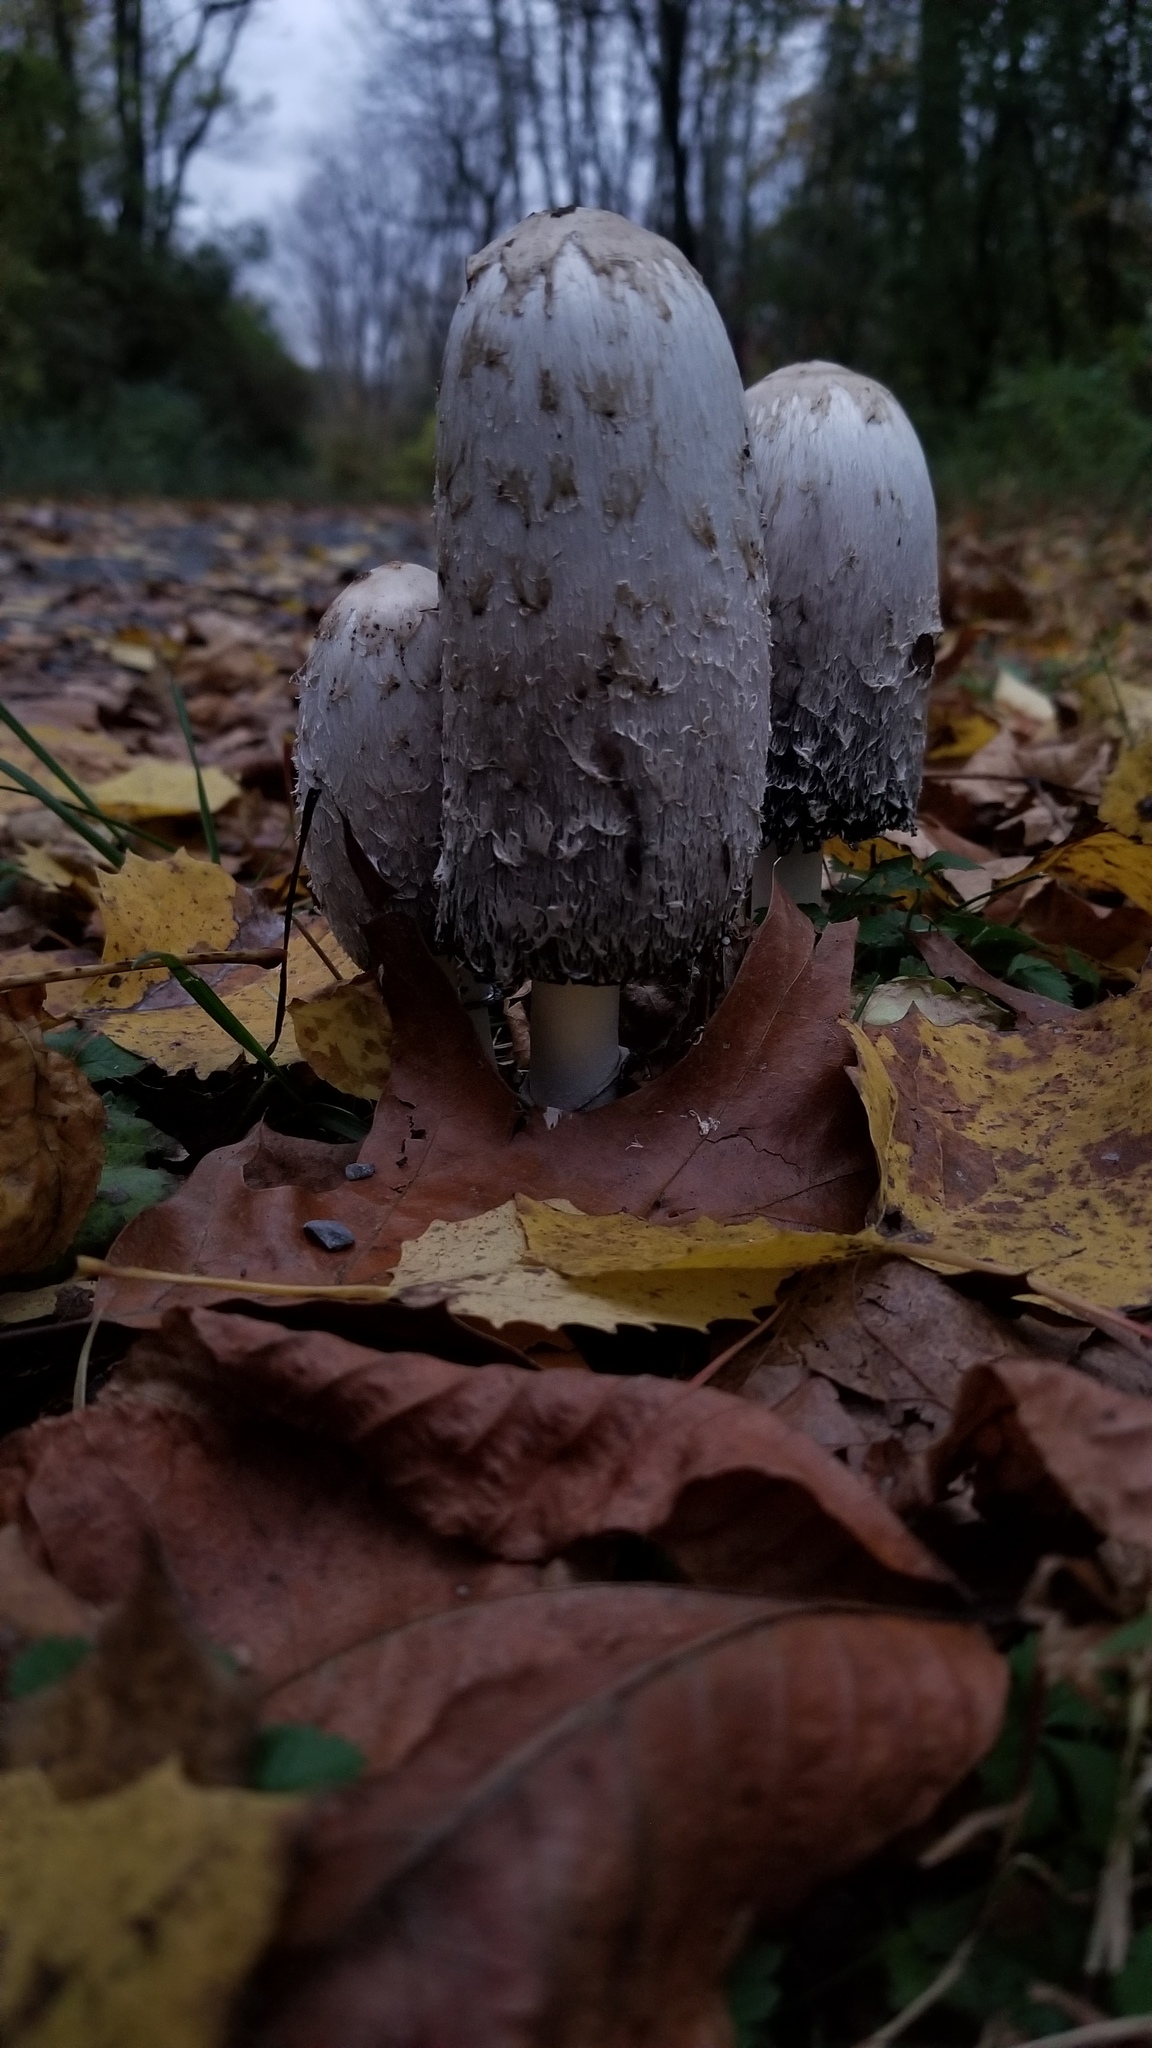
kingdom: Fungi
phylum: Basidiomycota
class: Agaricomycetes
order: Agaricales
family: Agaricaceae
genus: Coprinus
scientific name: Coprinus comatus
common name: Lawyer's wig
